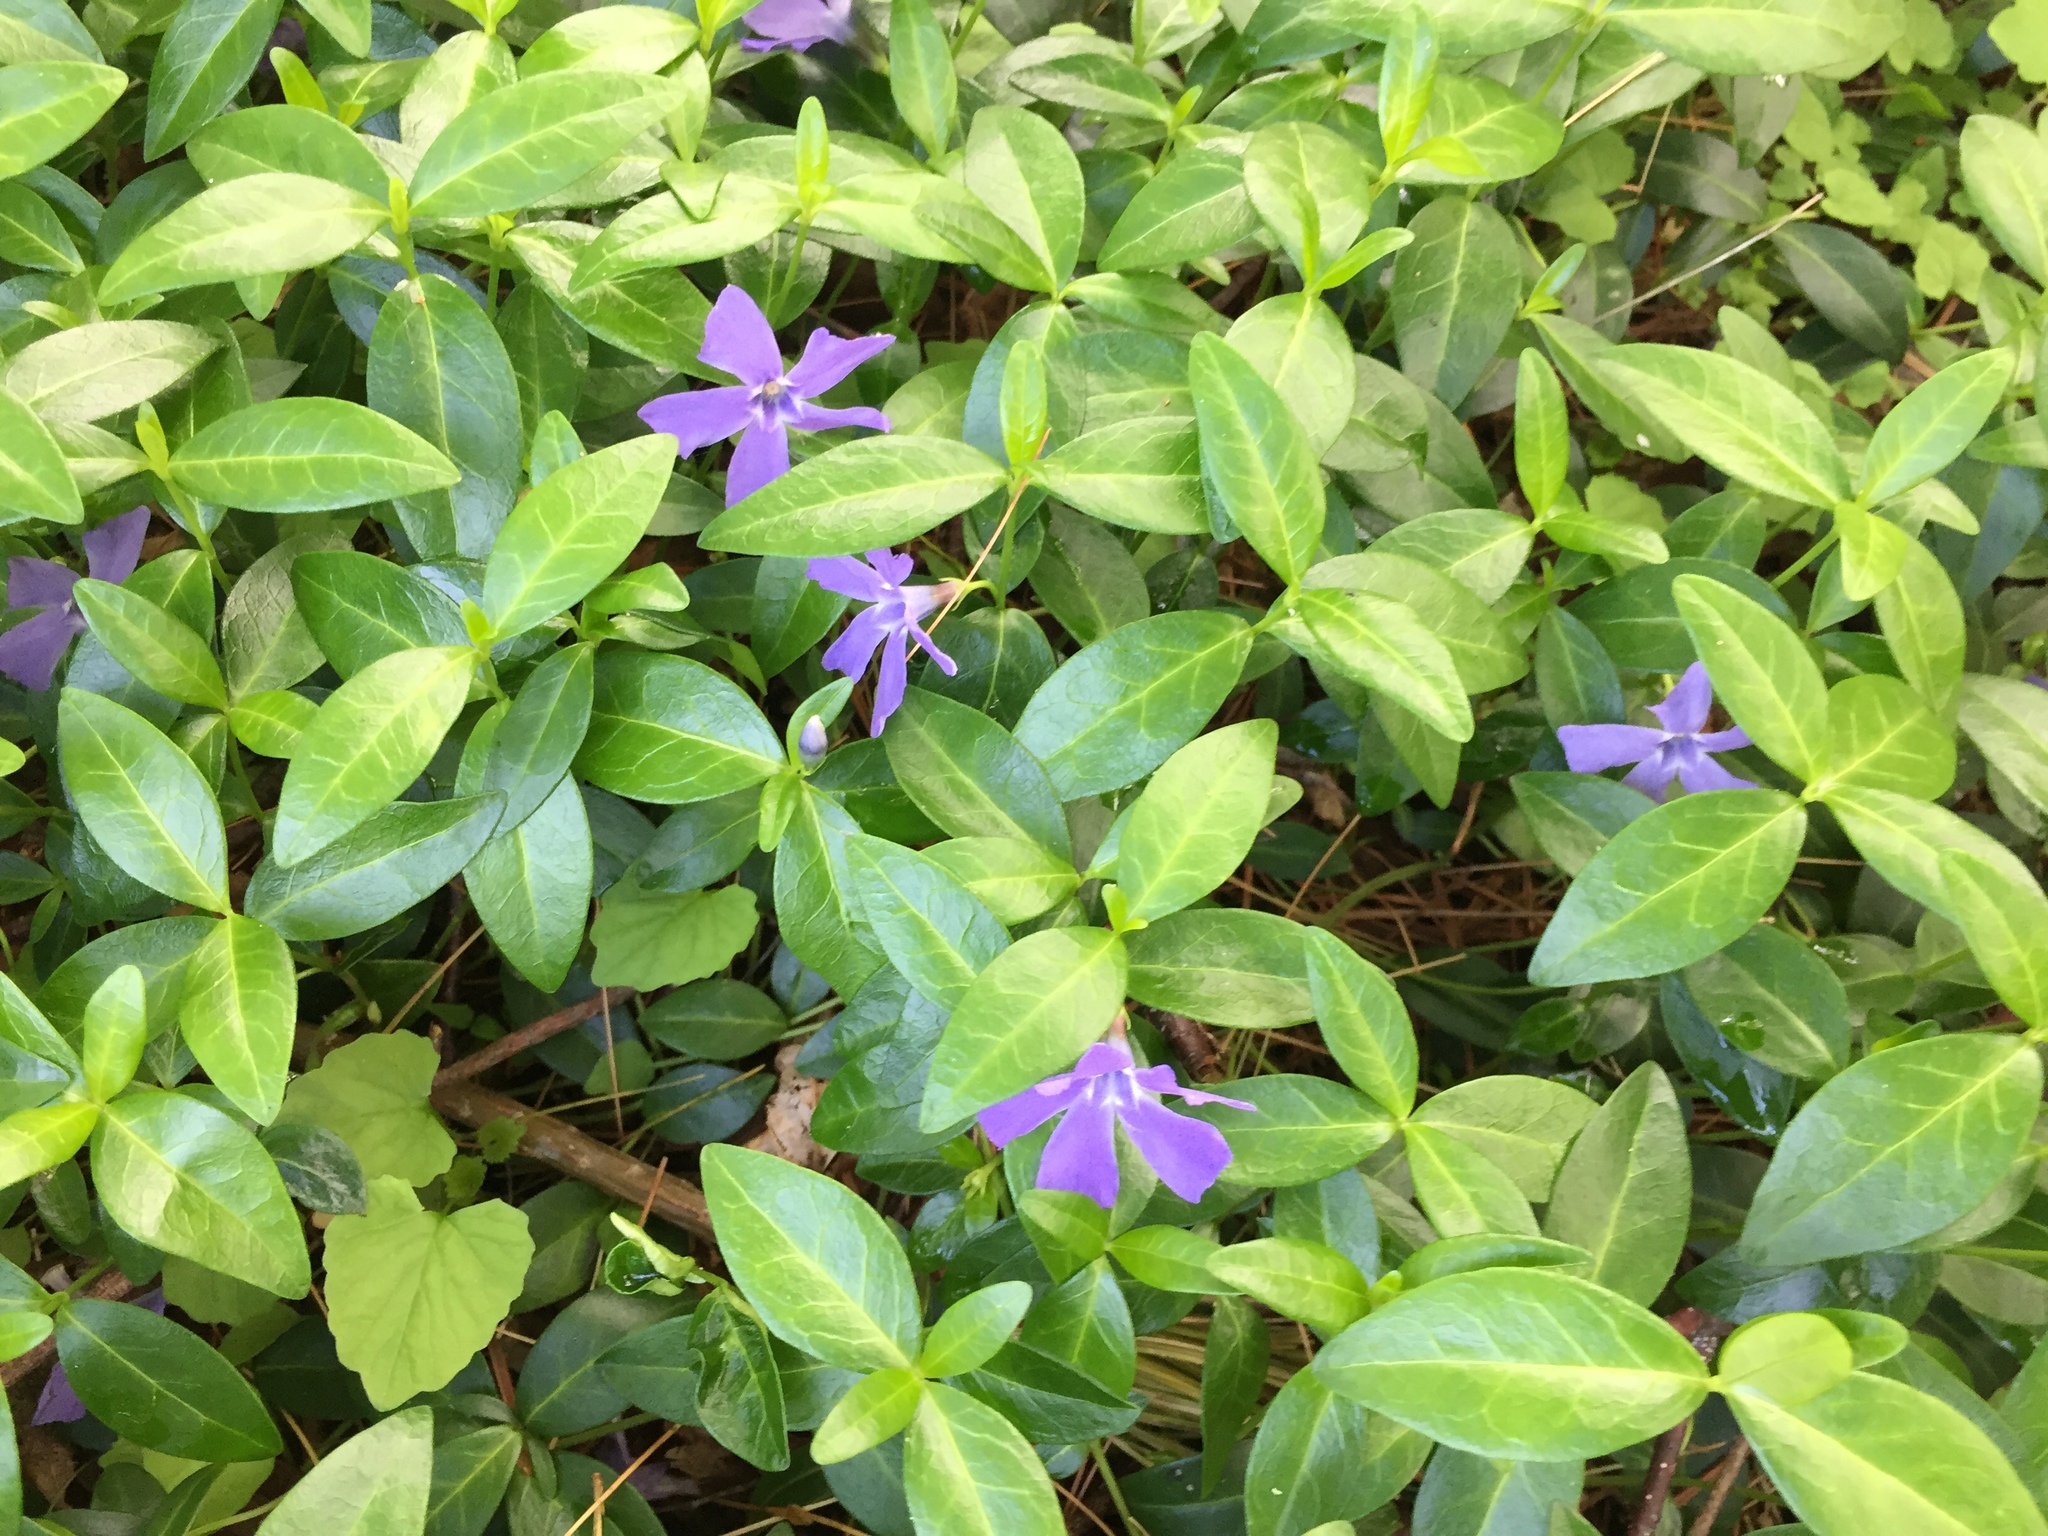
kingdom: Plantae
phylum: Tracheophyta
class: Magnoliopsida
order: Gentianales
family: Apocynaceae
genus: Vinca
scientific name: Vinca minor
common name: Lesser periwinkle
